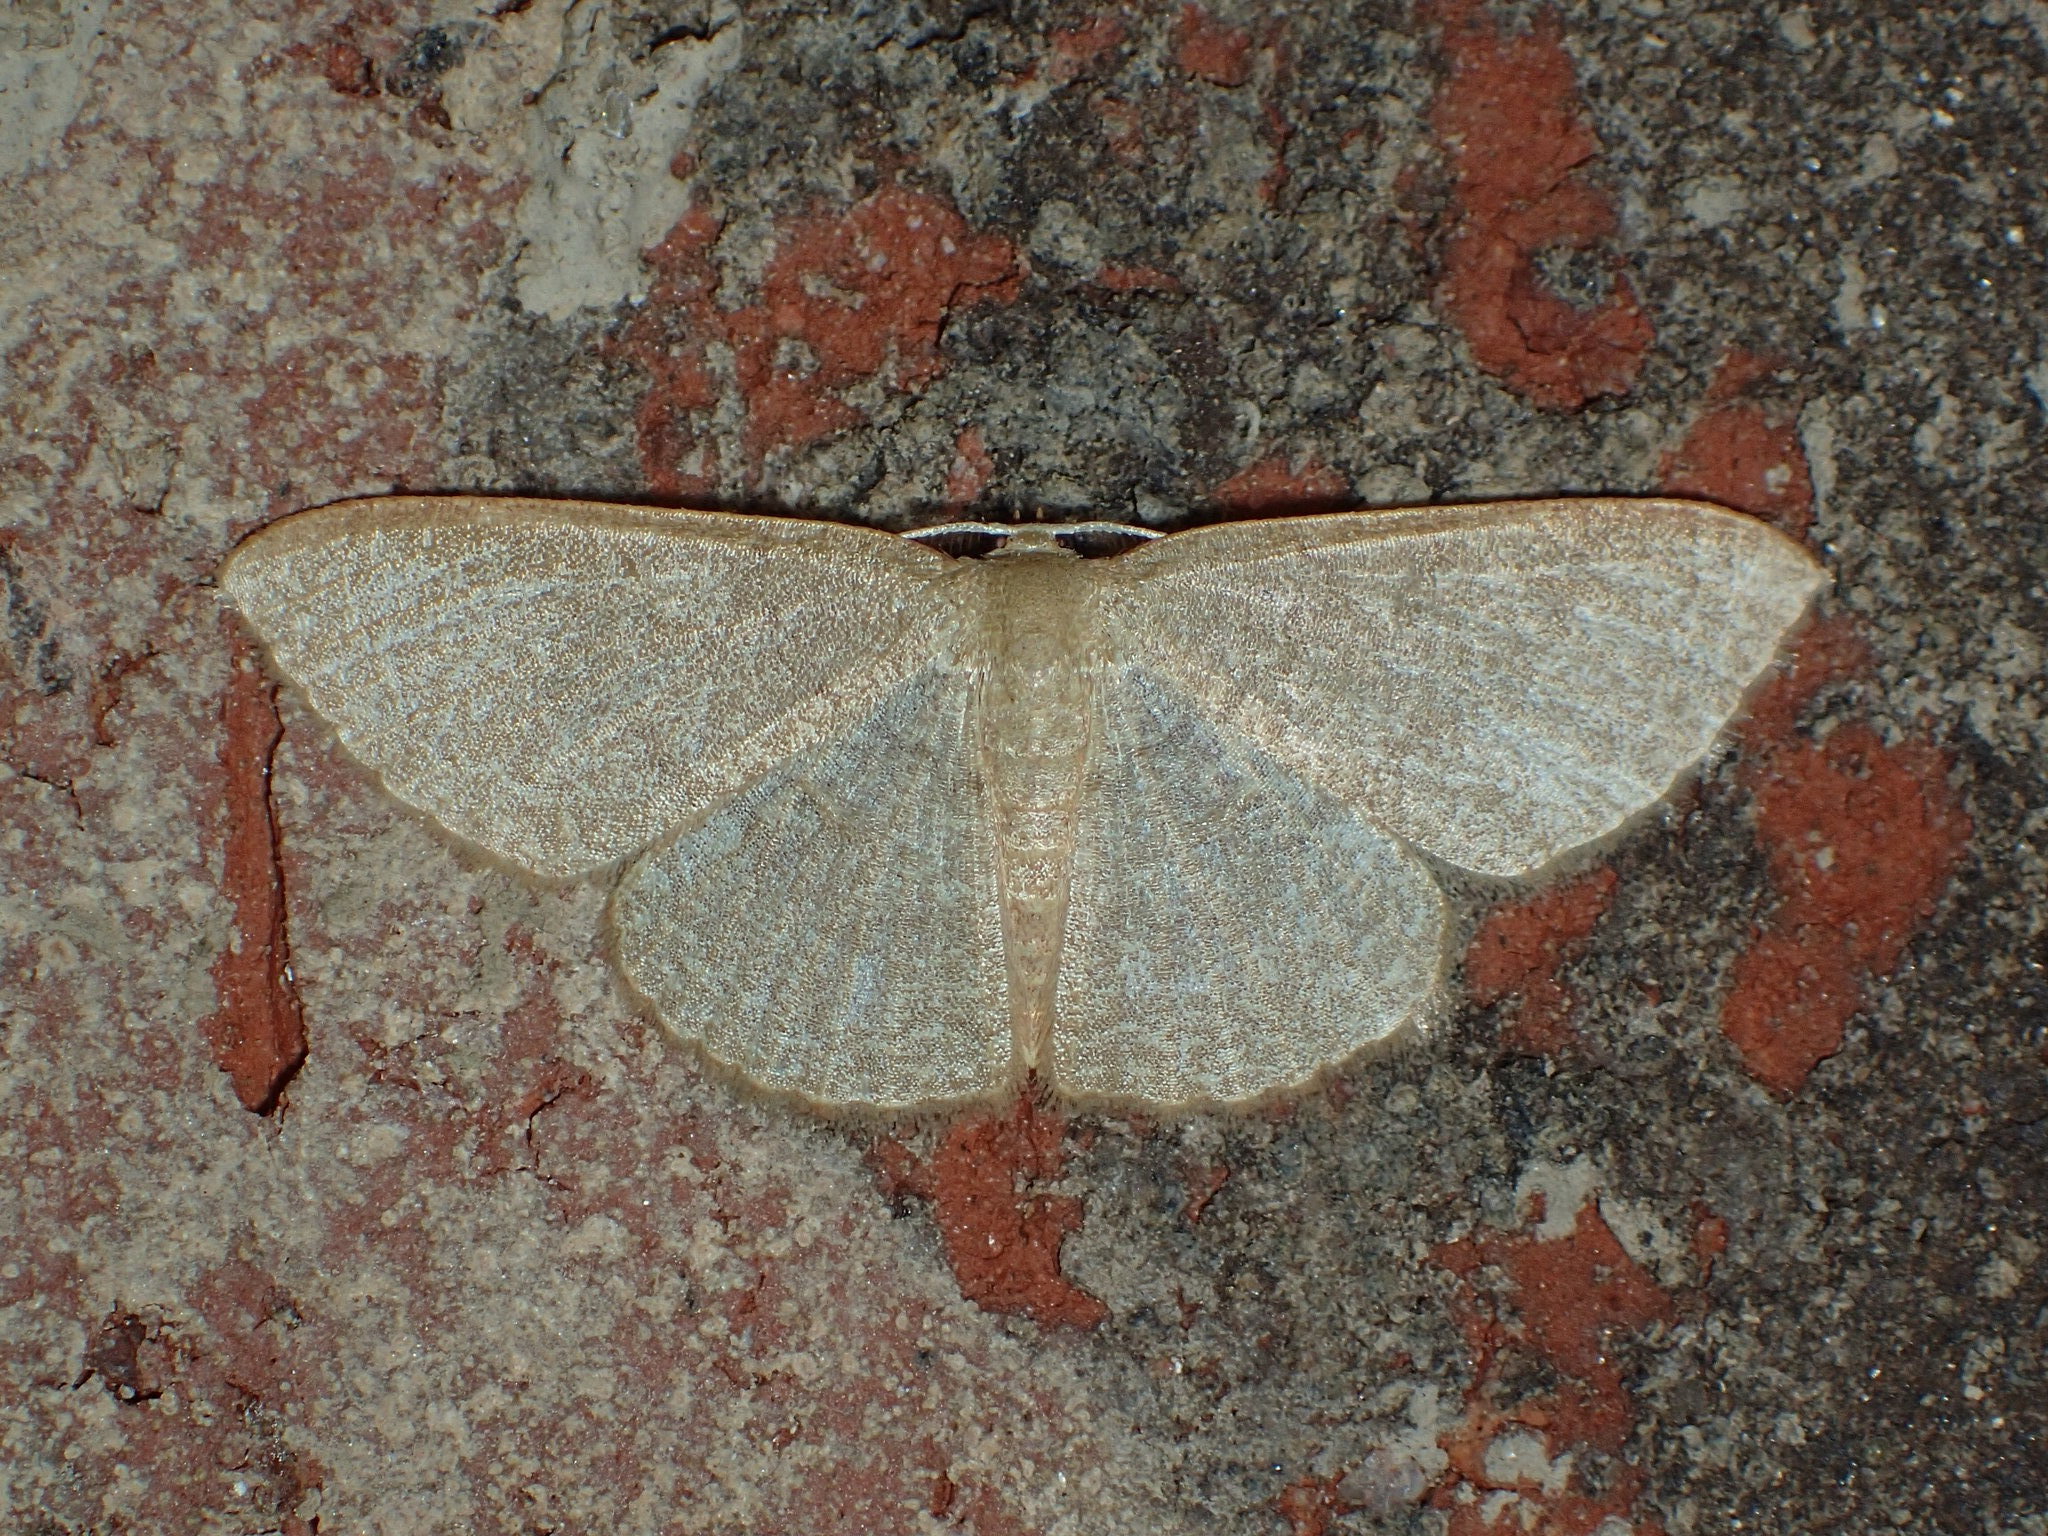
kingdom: Animalia
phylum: Arthropoda
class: Insecta
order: Lepidoptera
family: Geometridae
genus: Pleuroprucha
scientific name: Pleuroprucha insulsaria
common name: Common tan wave
